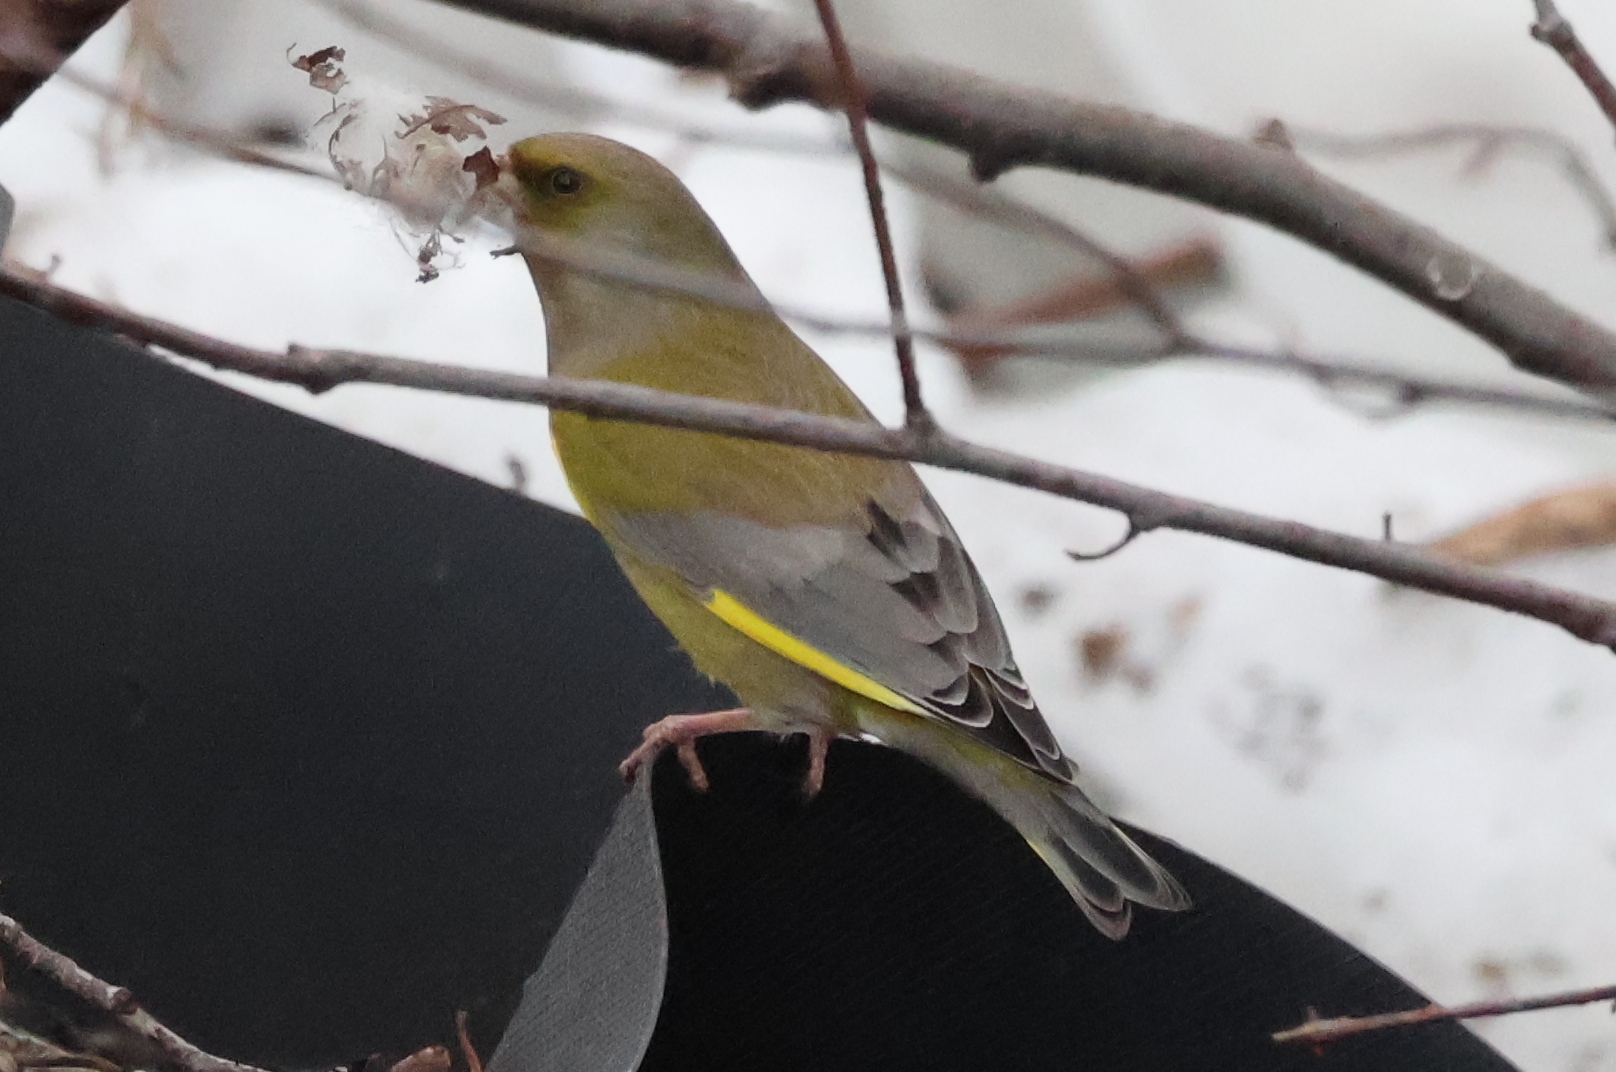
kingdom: Plantae
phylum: Tracheophyta
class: Liliopsida
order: Poales
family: Poaceae
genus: Chloris
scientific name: Chloris chloris
